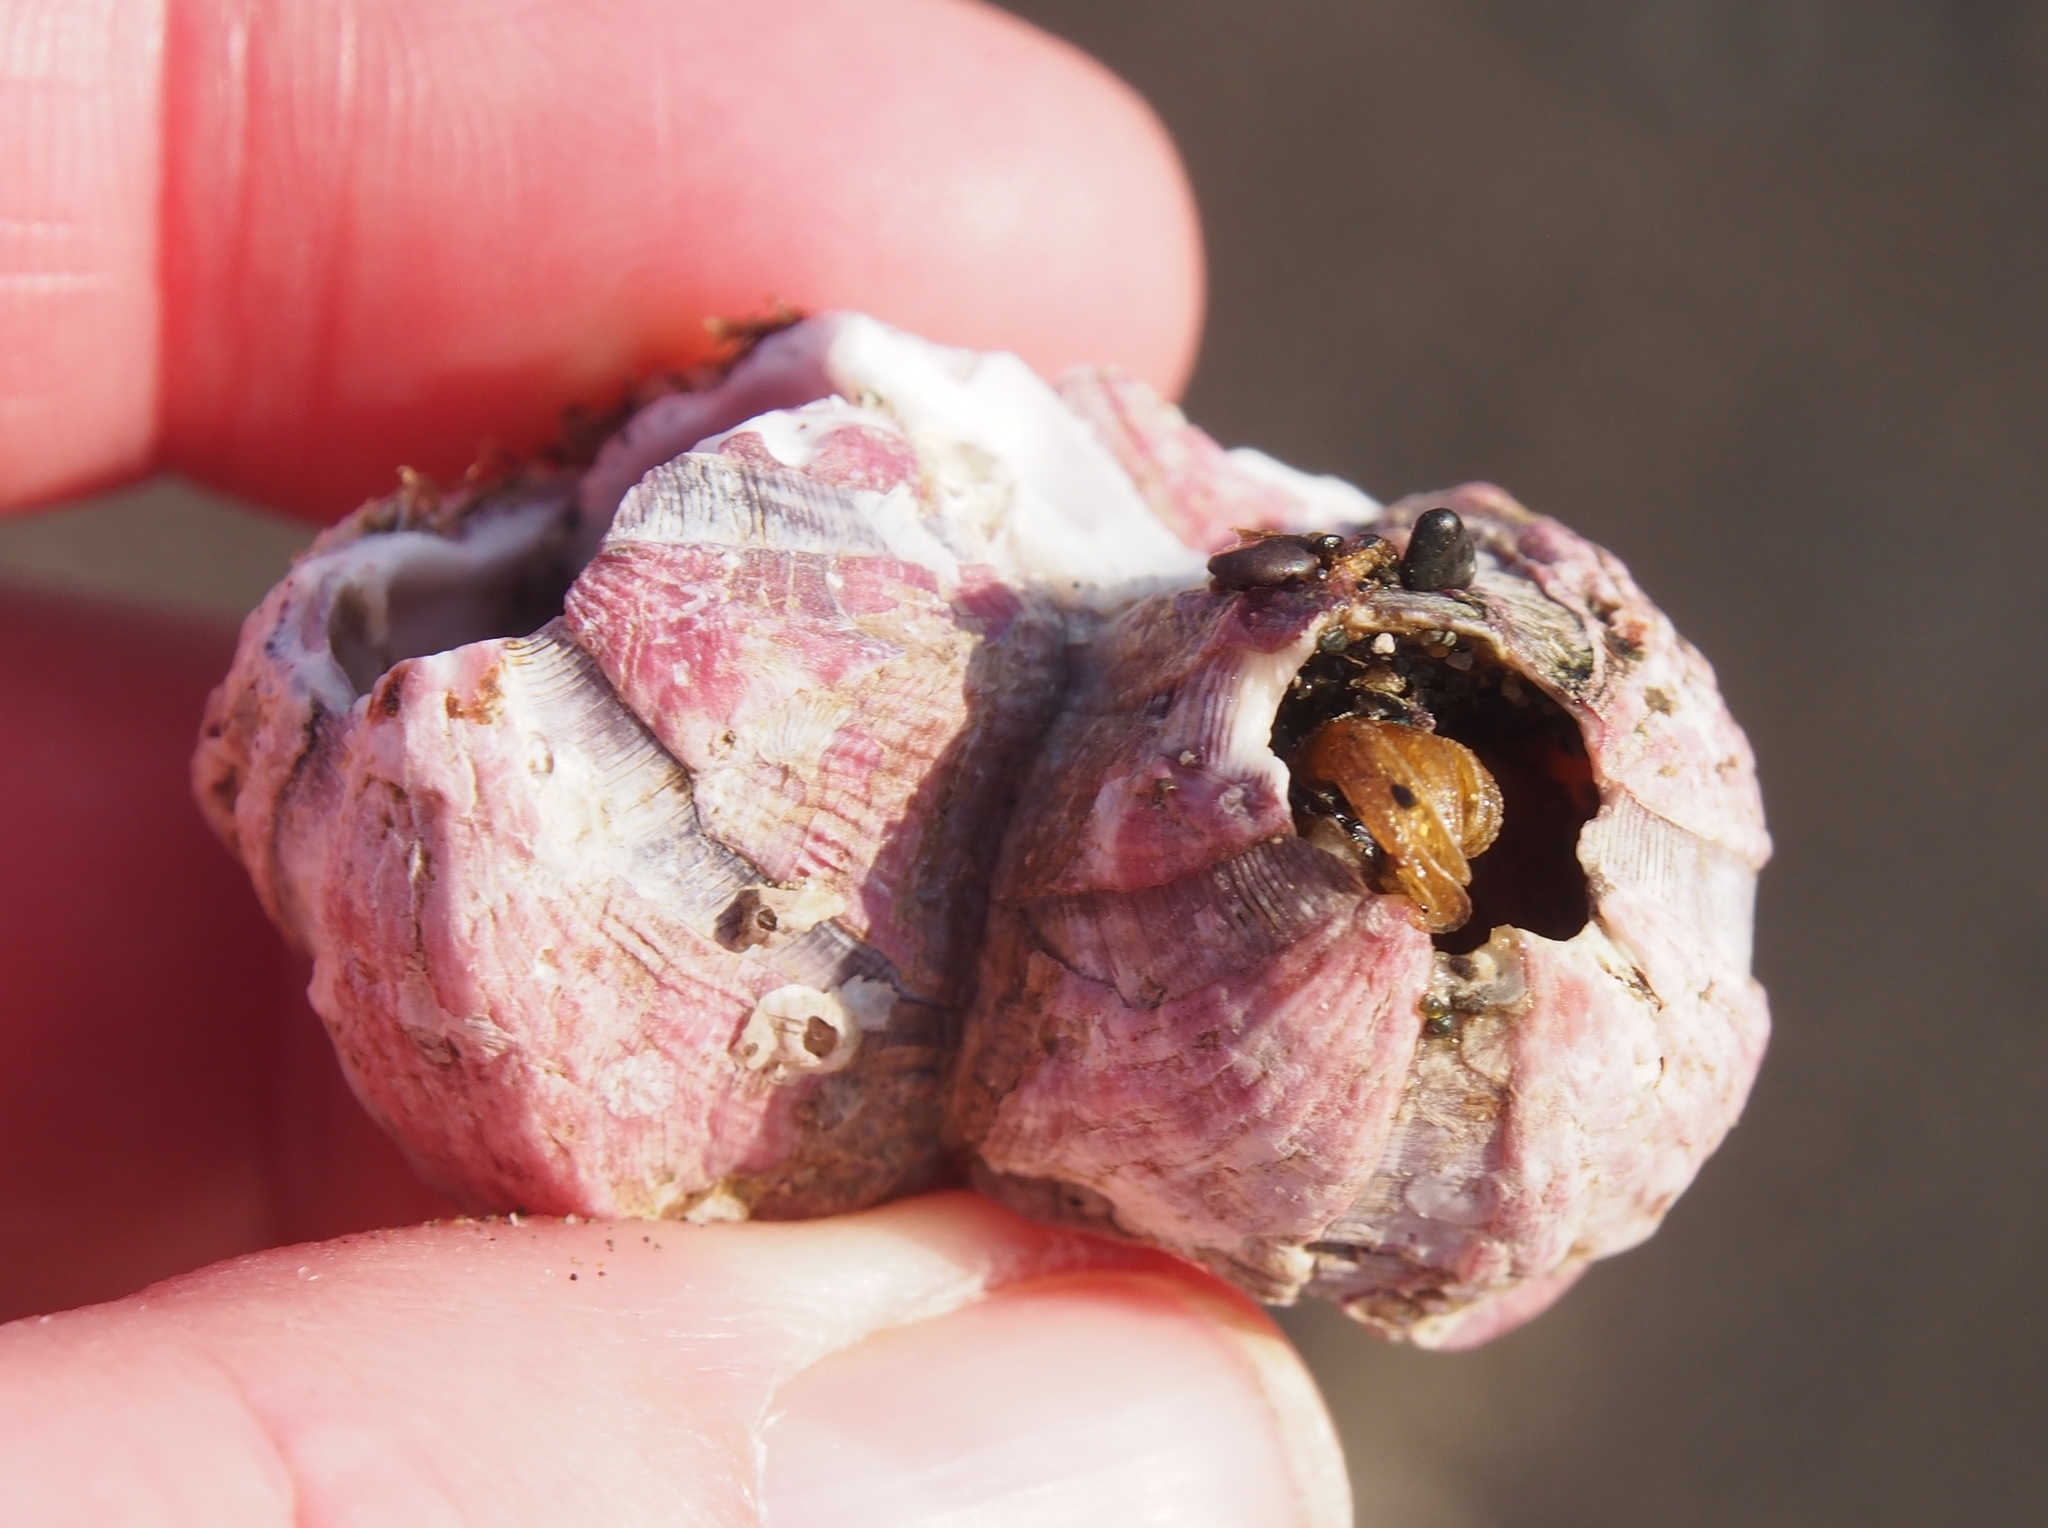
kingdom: Animalia
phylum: Arthropoda
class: Maxillopoda
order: Sessilia
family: Balanidae
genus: Megabalanus
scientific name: Megabalanus coccopoma
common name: Titan acorn barnacle
